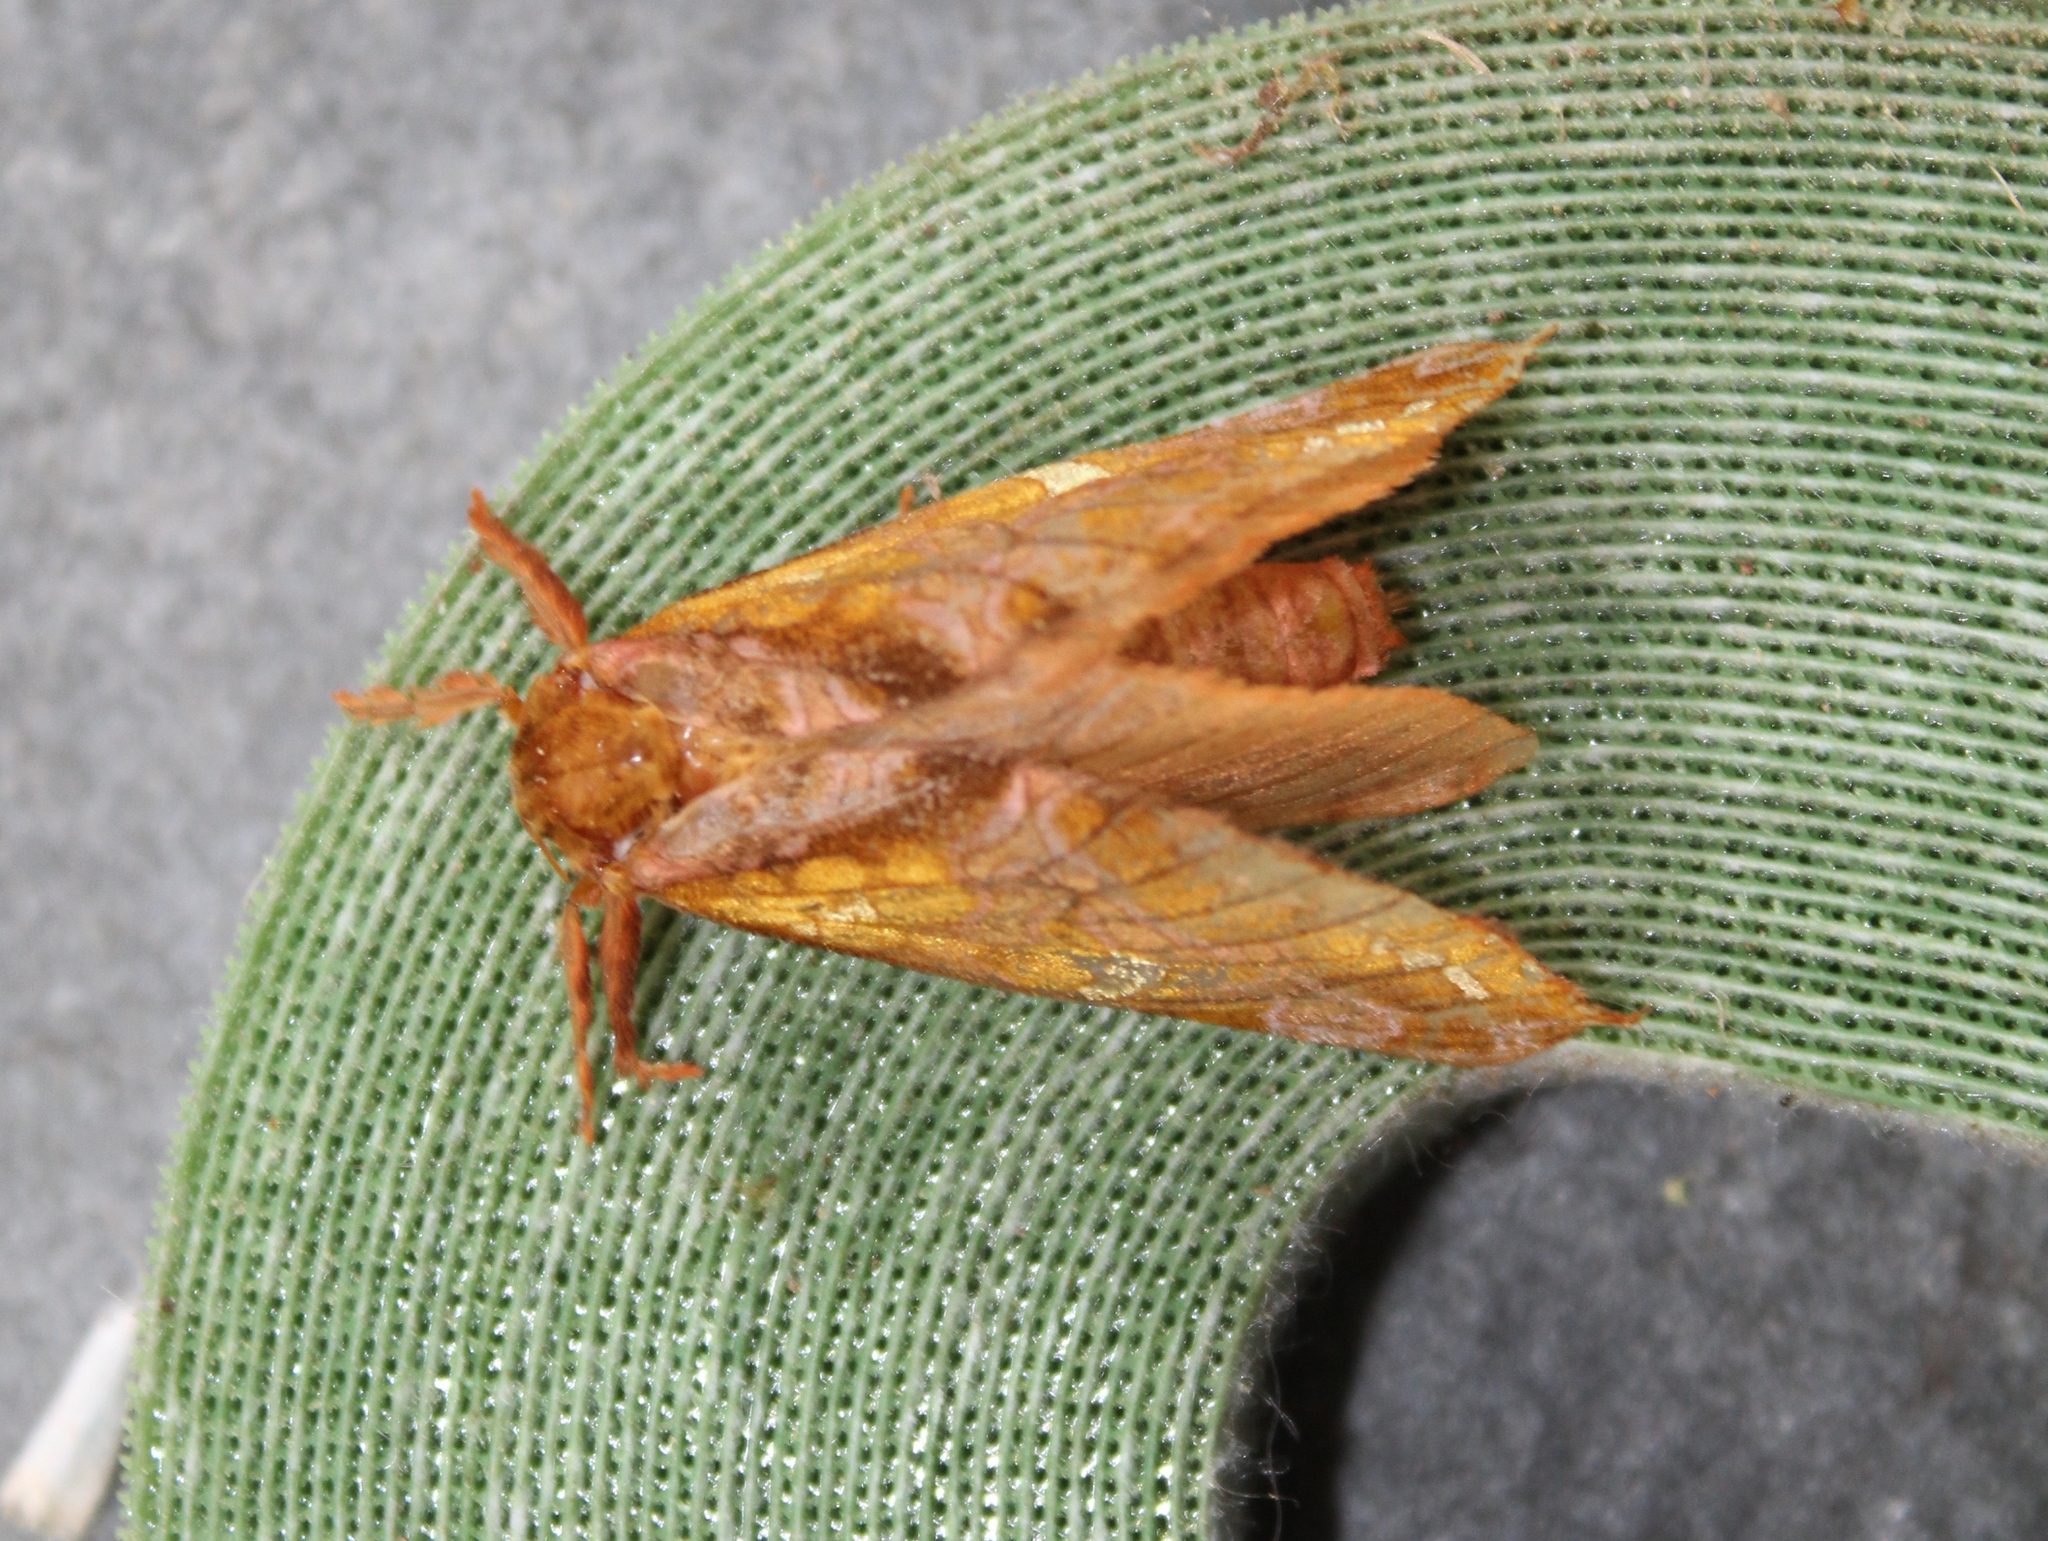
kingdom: Animalia
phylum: Arthropoda
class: Insecta
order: Lepidoptera
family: Hepialidae
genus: Sthenopis
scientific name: Sthenopis pretiosus
